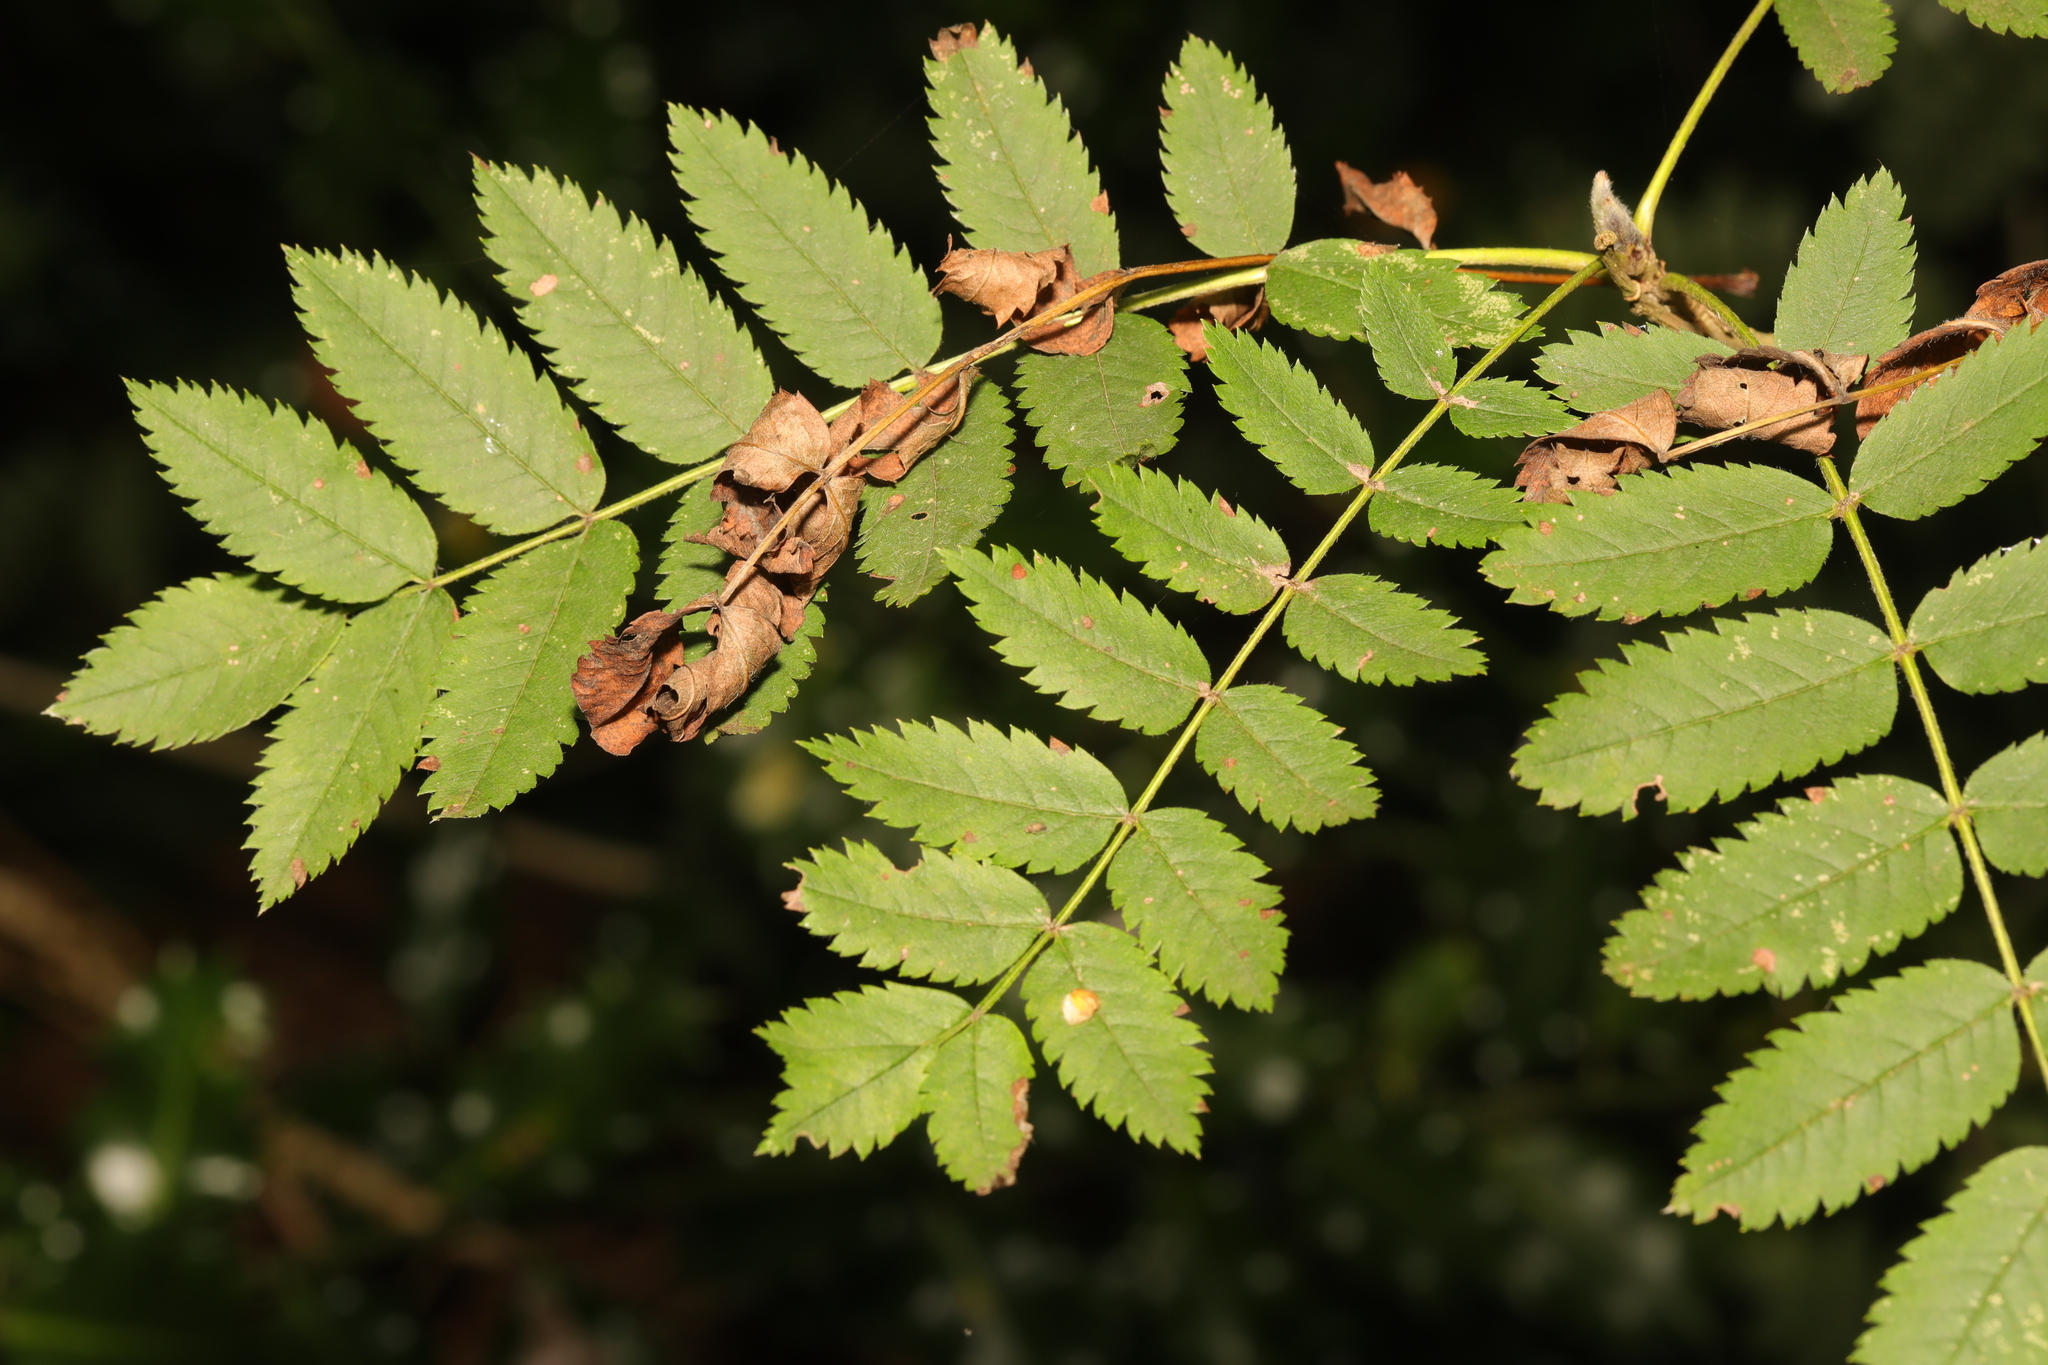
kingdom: Plantae
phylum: Tracheophyta
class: Magnoliopsida
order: Rosales
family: Rosaceae
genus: Sorbus
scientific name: Sorbus aucuparia
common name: Rowan
